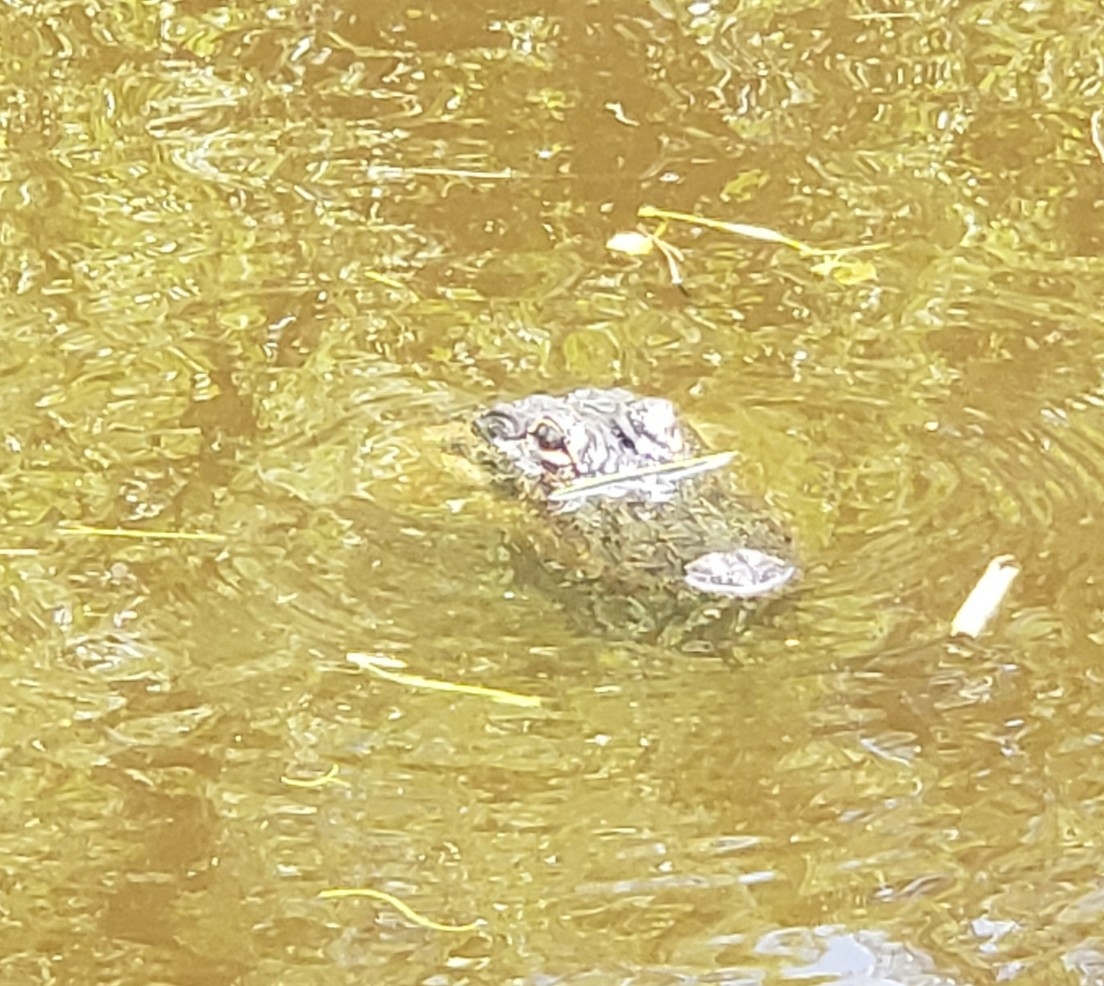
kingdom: Animalia
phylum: Chordata
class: Crocodylia
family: Alligatoridae
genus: Alligator
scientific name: Alligator mississippiensis
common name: American alligator
